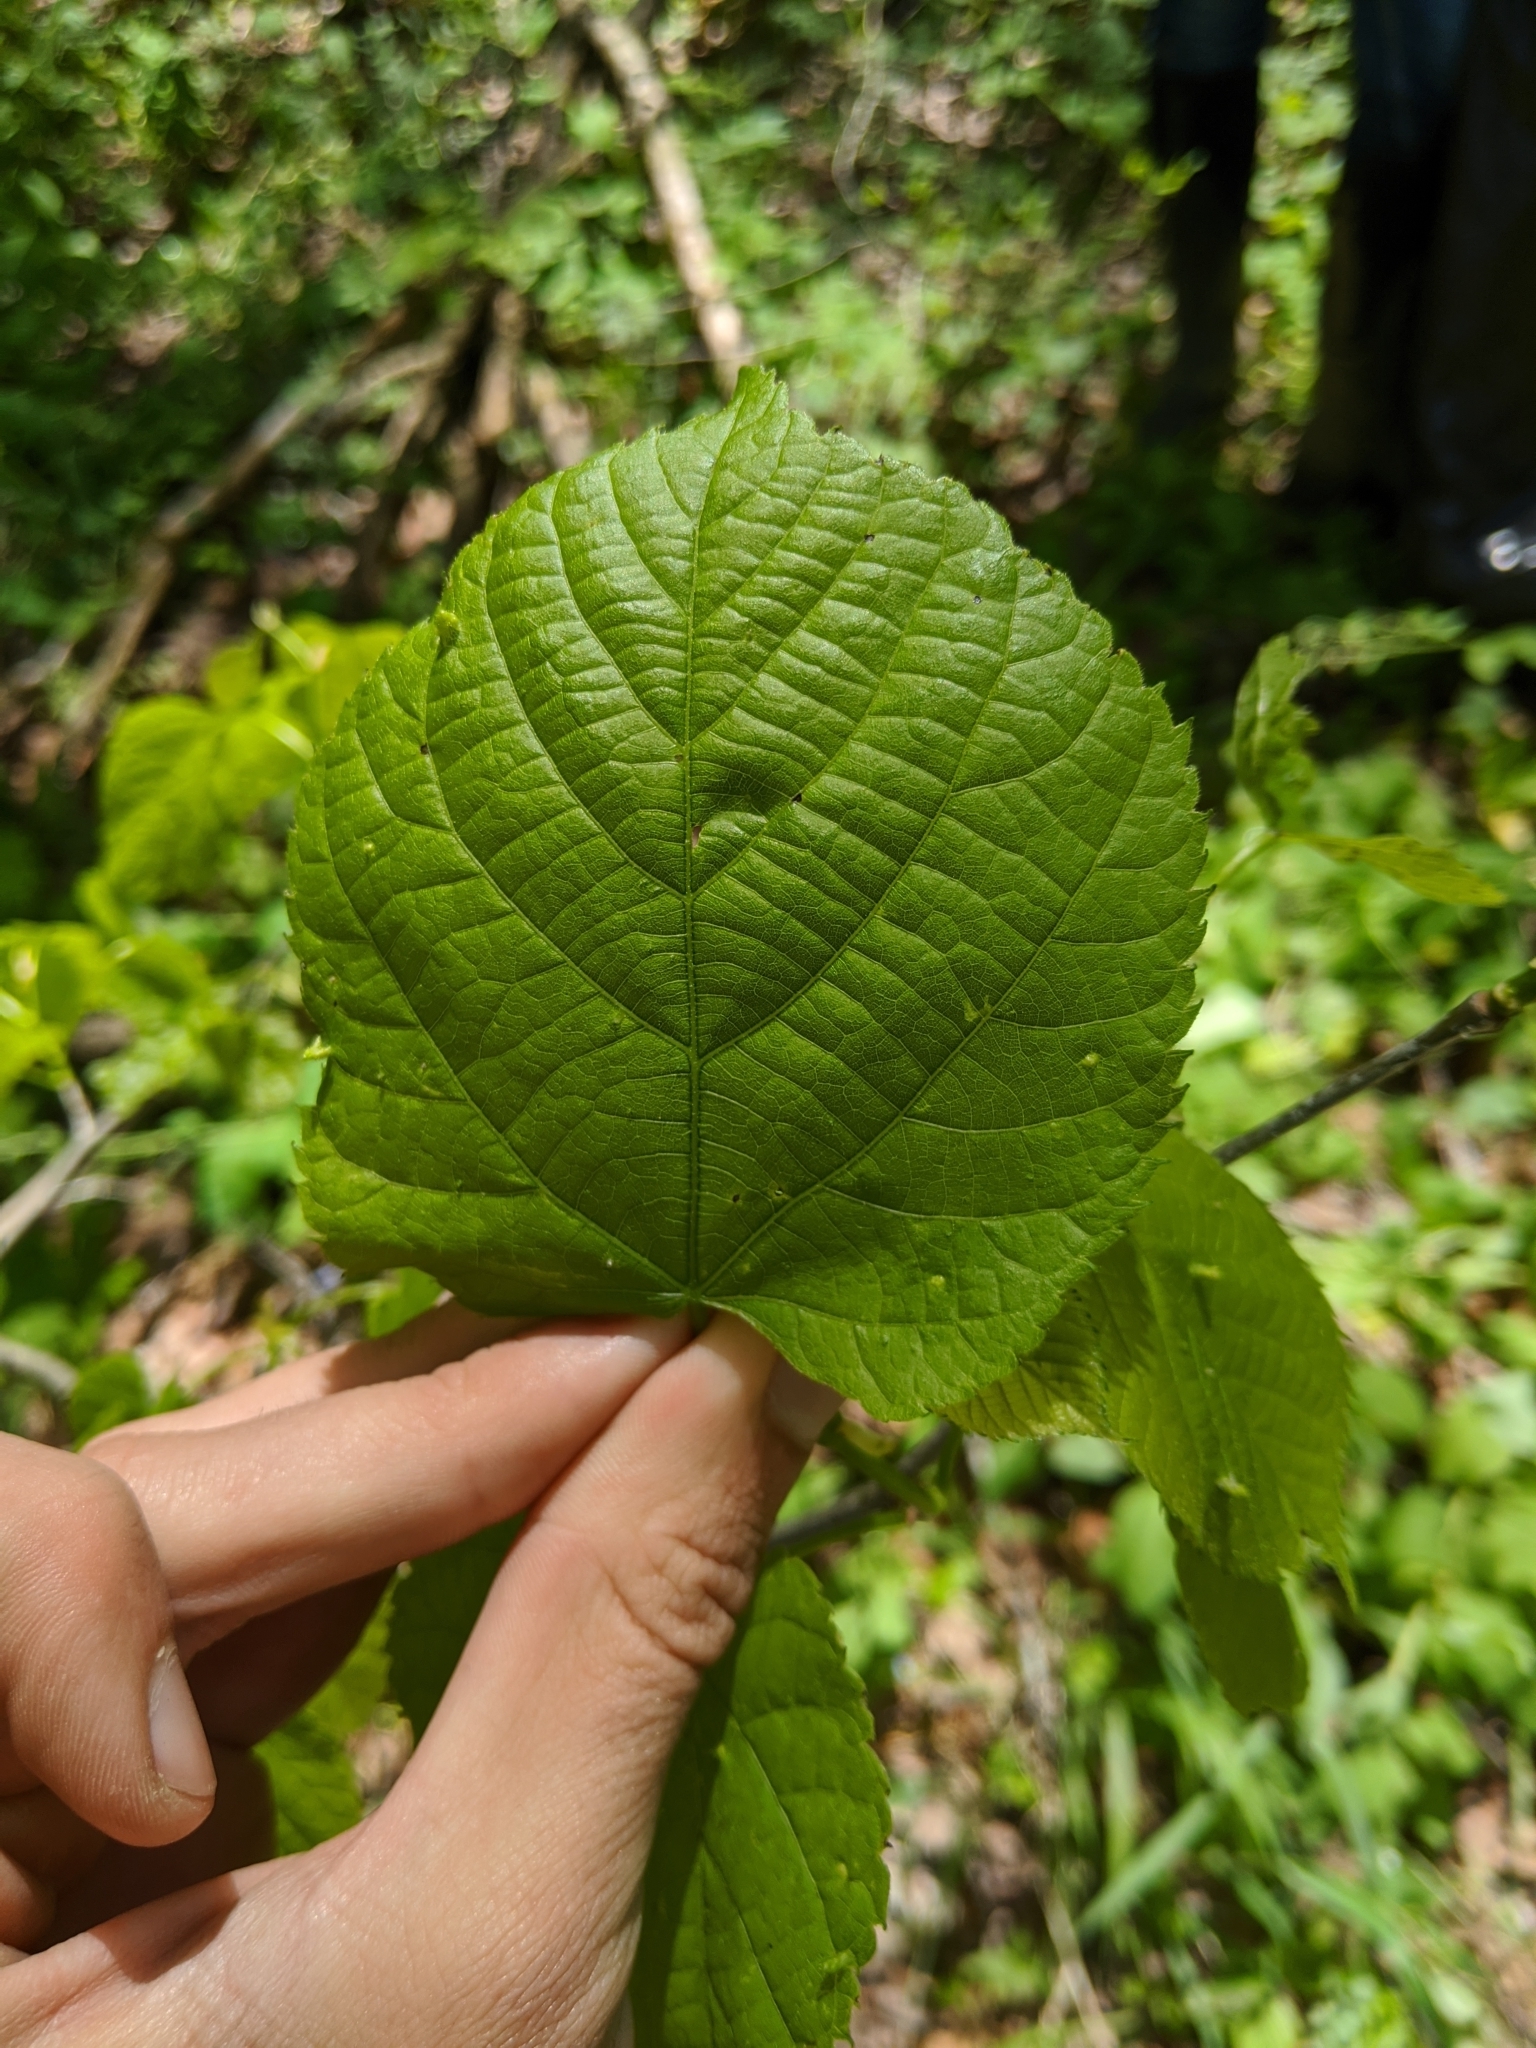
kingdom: Plantae
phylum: Tracheophyta
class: Magnoliopsida
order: Malvales
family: Malvaceae
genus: Tilia
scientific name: Tilia americana
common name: Basswood
